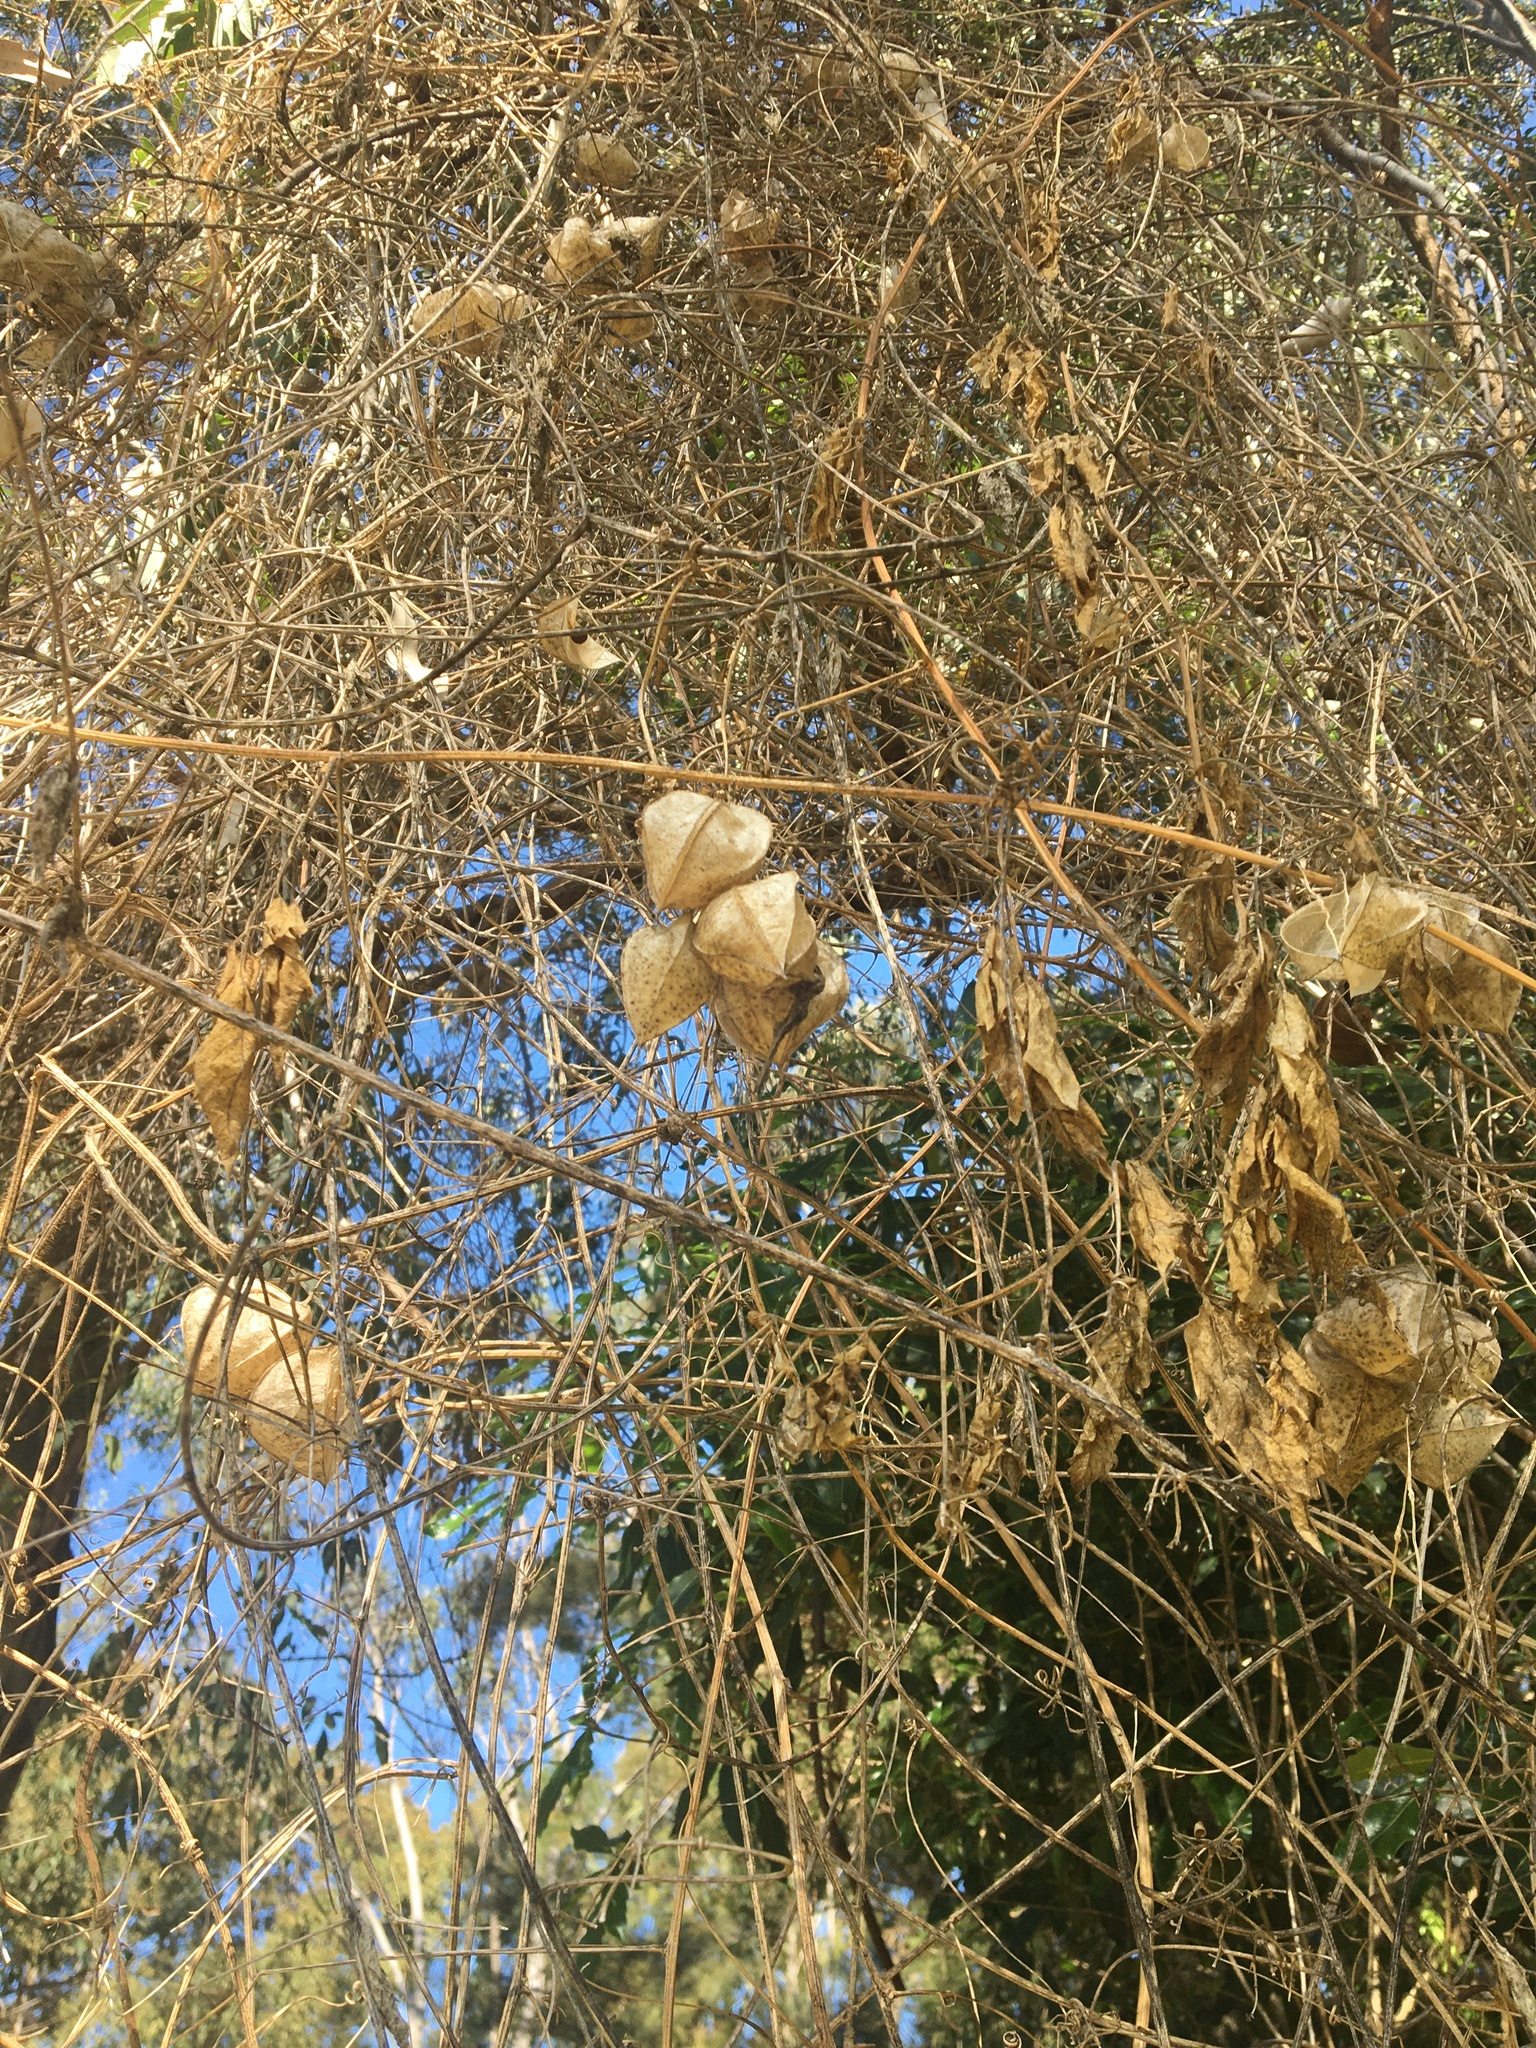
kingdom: Plantae
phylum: Tracheophyta
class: Magnoliopsida
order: Sapindales
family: Sapindaceae
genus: Cardiospermum
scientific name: Cardiospermum grandiflorum
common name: Balloon vine
